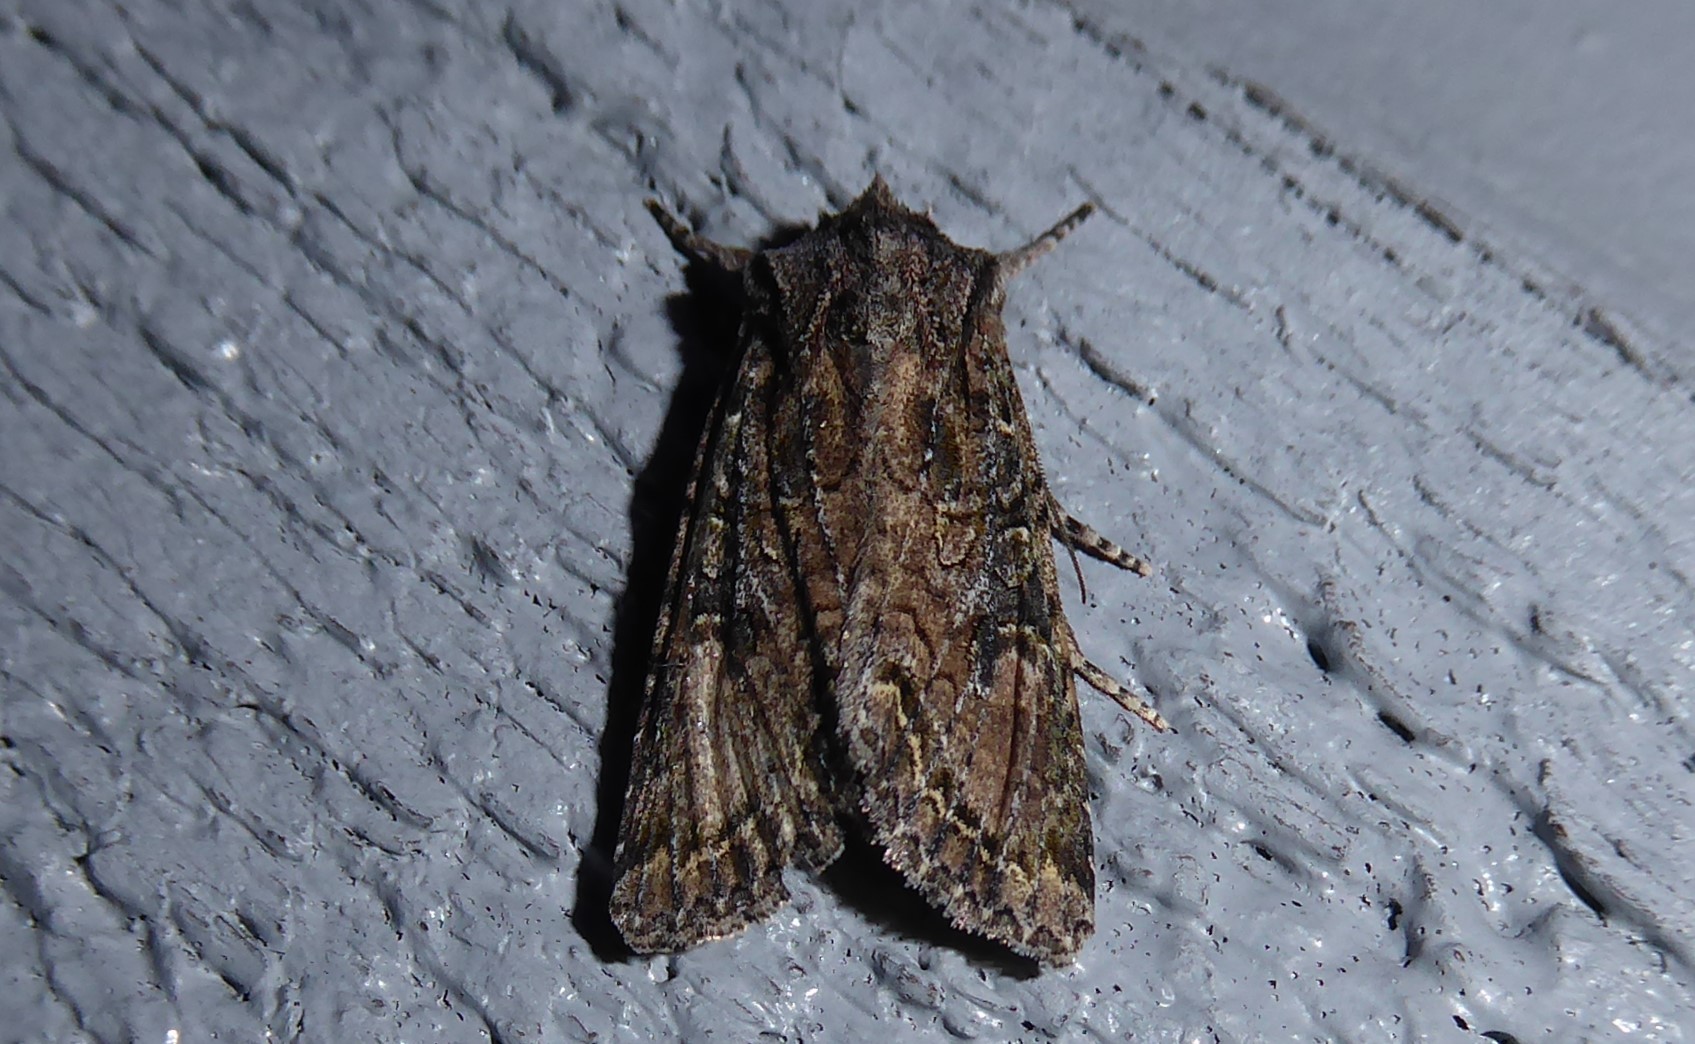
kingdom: Animalia
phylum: Arthropoda
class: Insecta
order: Lepidoptera
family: Noctuidae
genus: Ichneutica
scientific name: Ichneutica mutans
